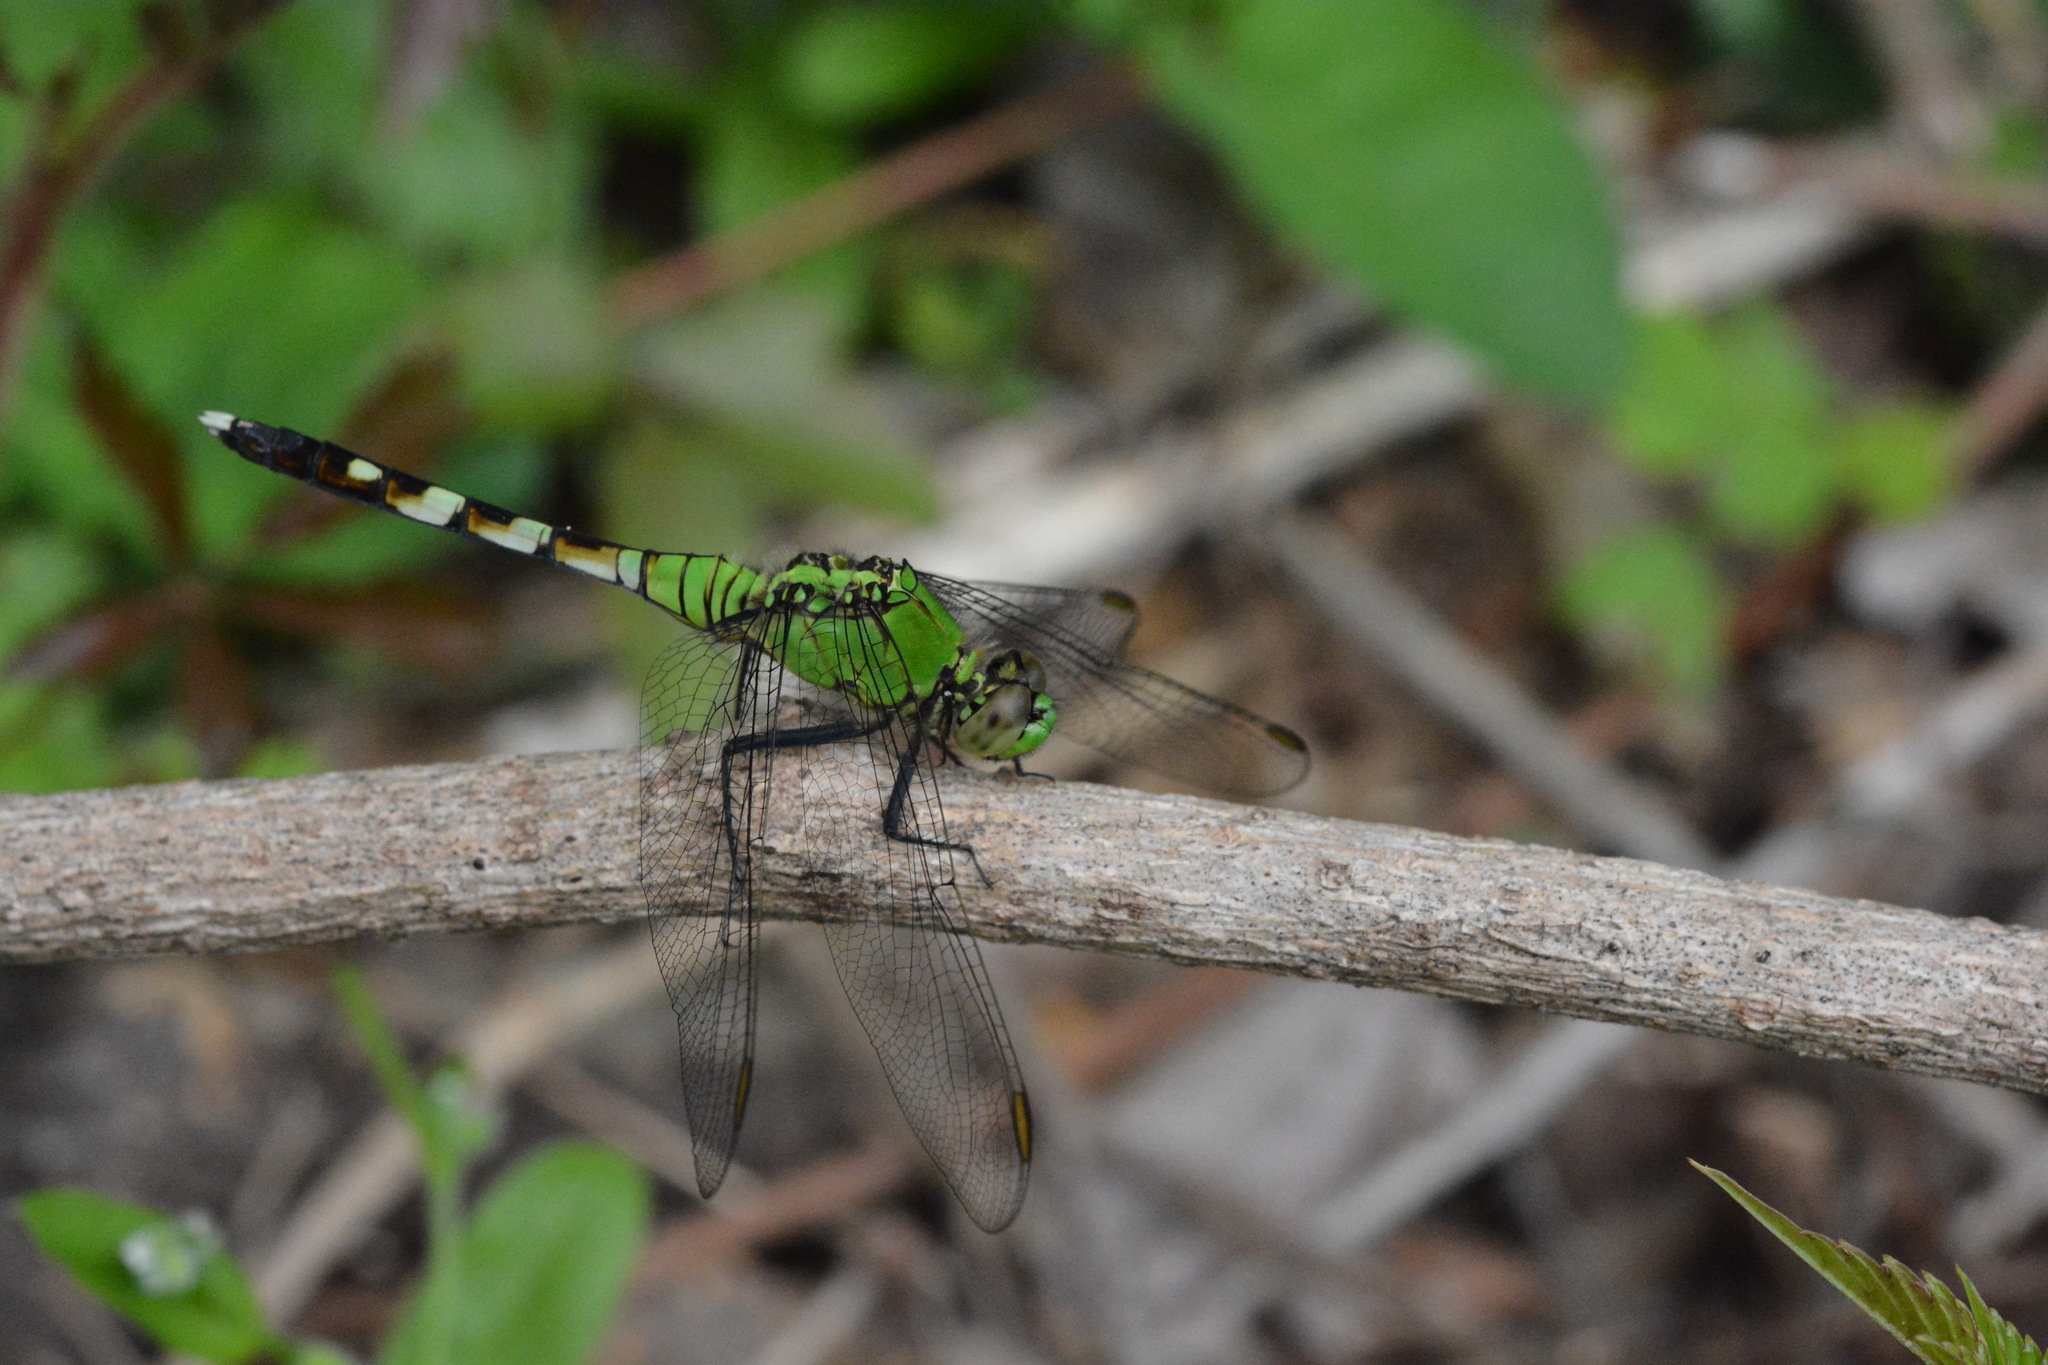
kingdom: Animalia
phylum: Arthropoda
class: Insecta
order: Odonata
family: Libellulidae
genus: Erythemis
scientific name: Erythemis simplicicollis
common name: Eastern pondhawk
